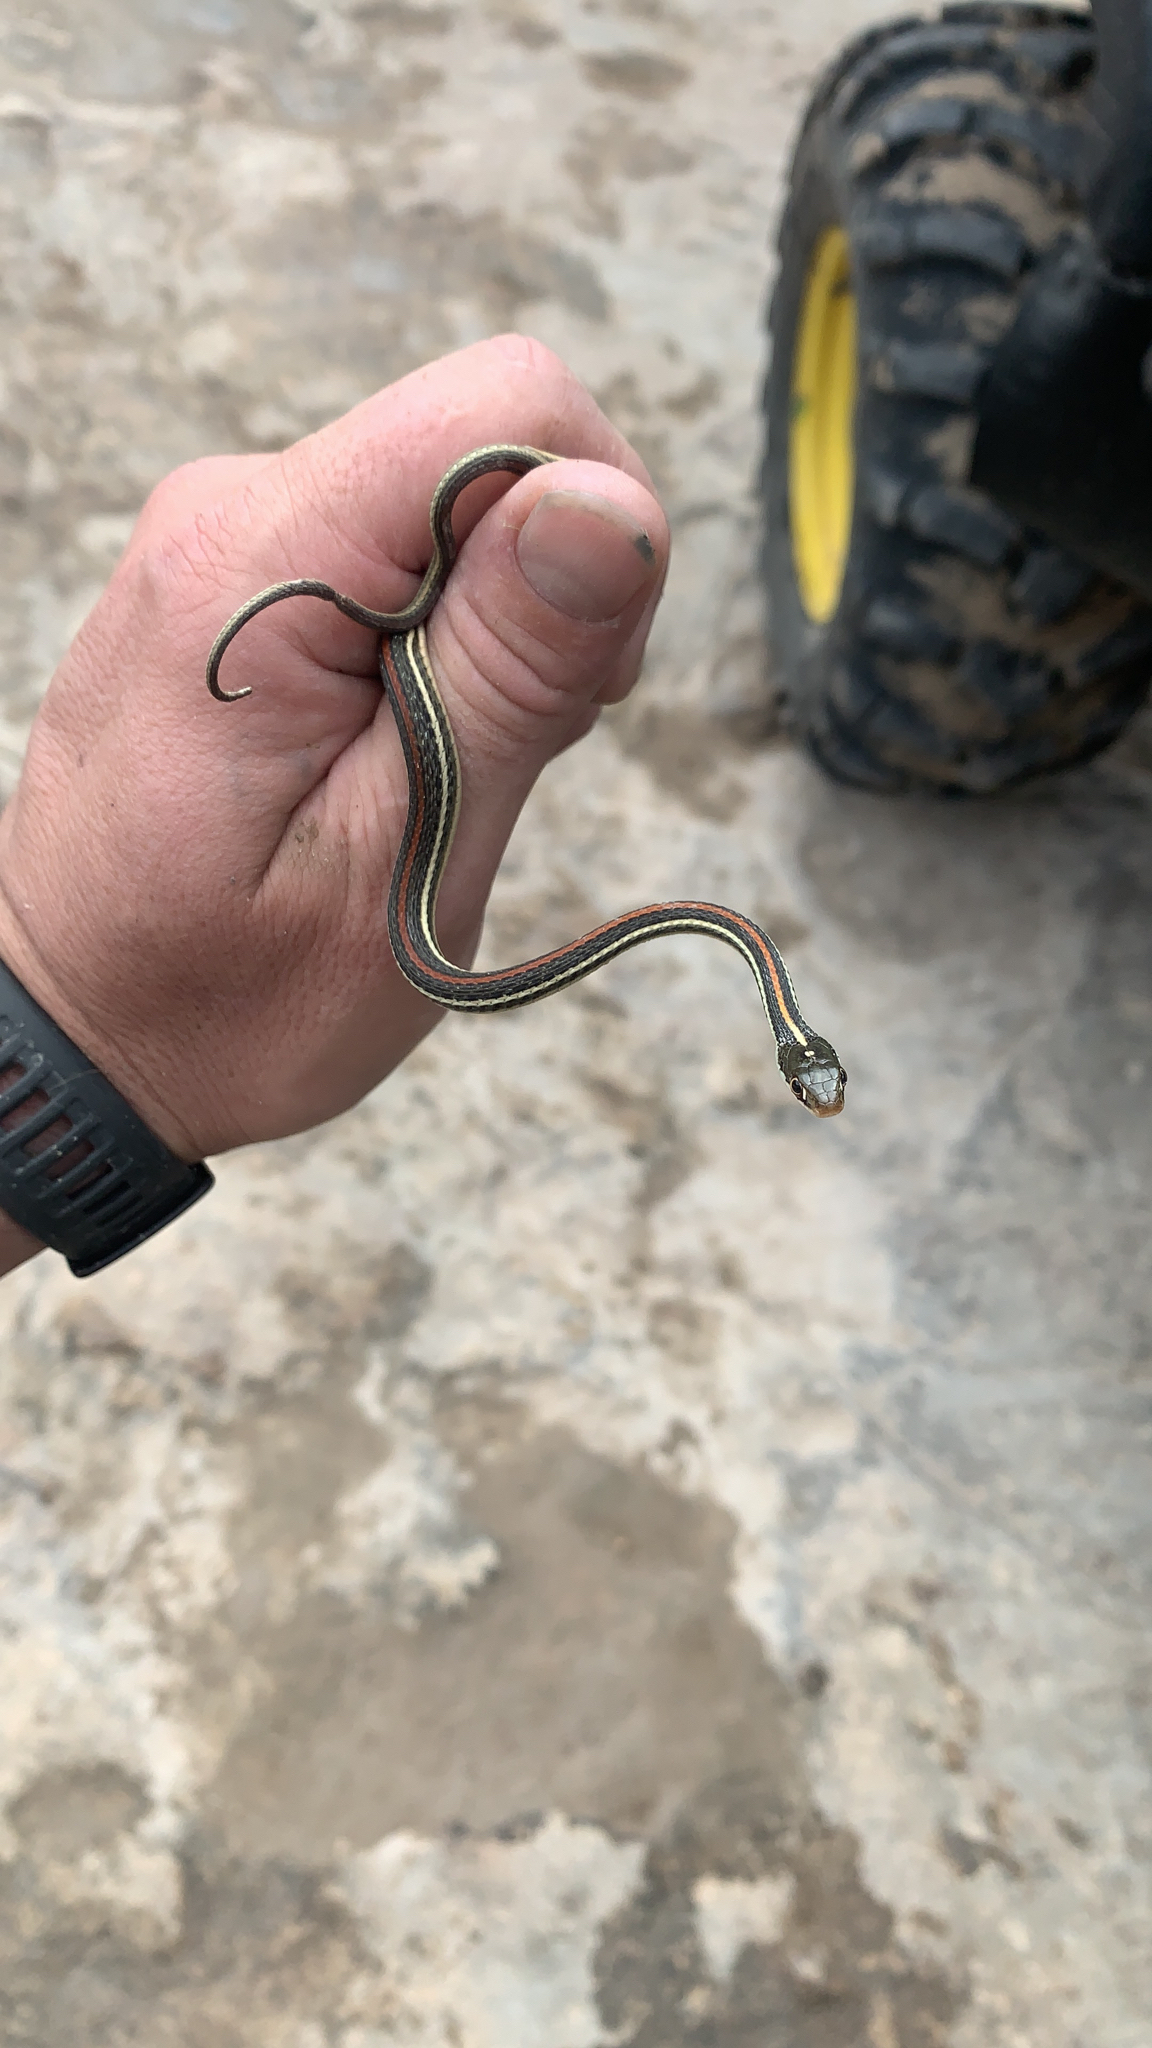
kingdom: Animalia
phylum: Chordata
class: Squamata
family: Colubridae
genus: Thamnophis
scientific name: Thamnophis proximus
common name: Western ribbon snake
